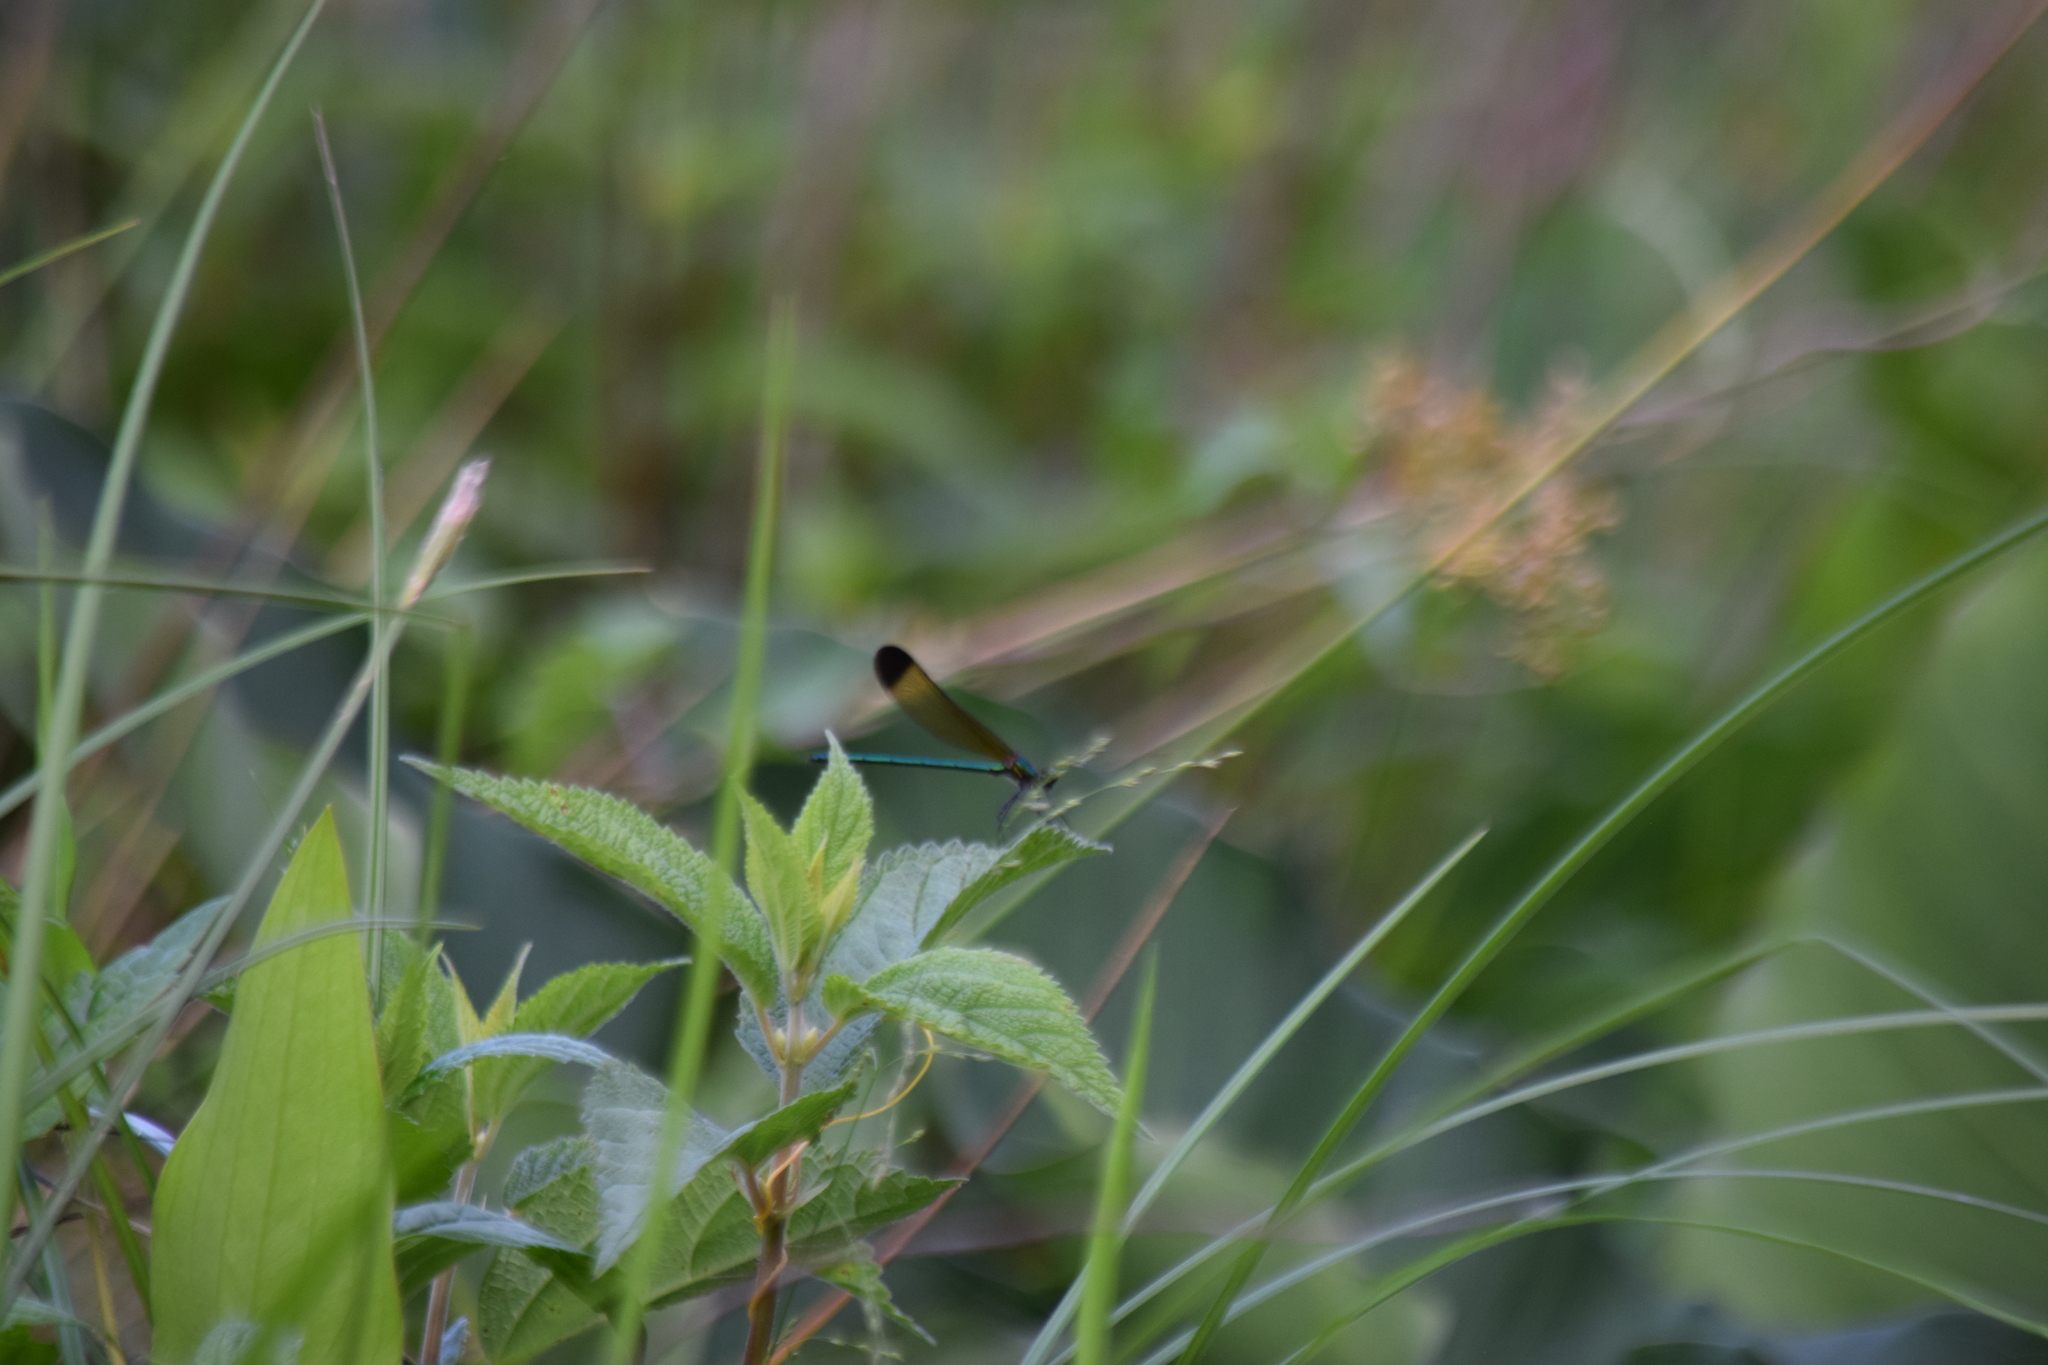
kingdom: Animalia
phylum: Arthropoda
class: Insecta
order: Odonata
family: Calopterygidae
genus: Calopteryx
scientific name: Calopteryx dimidiata
